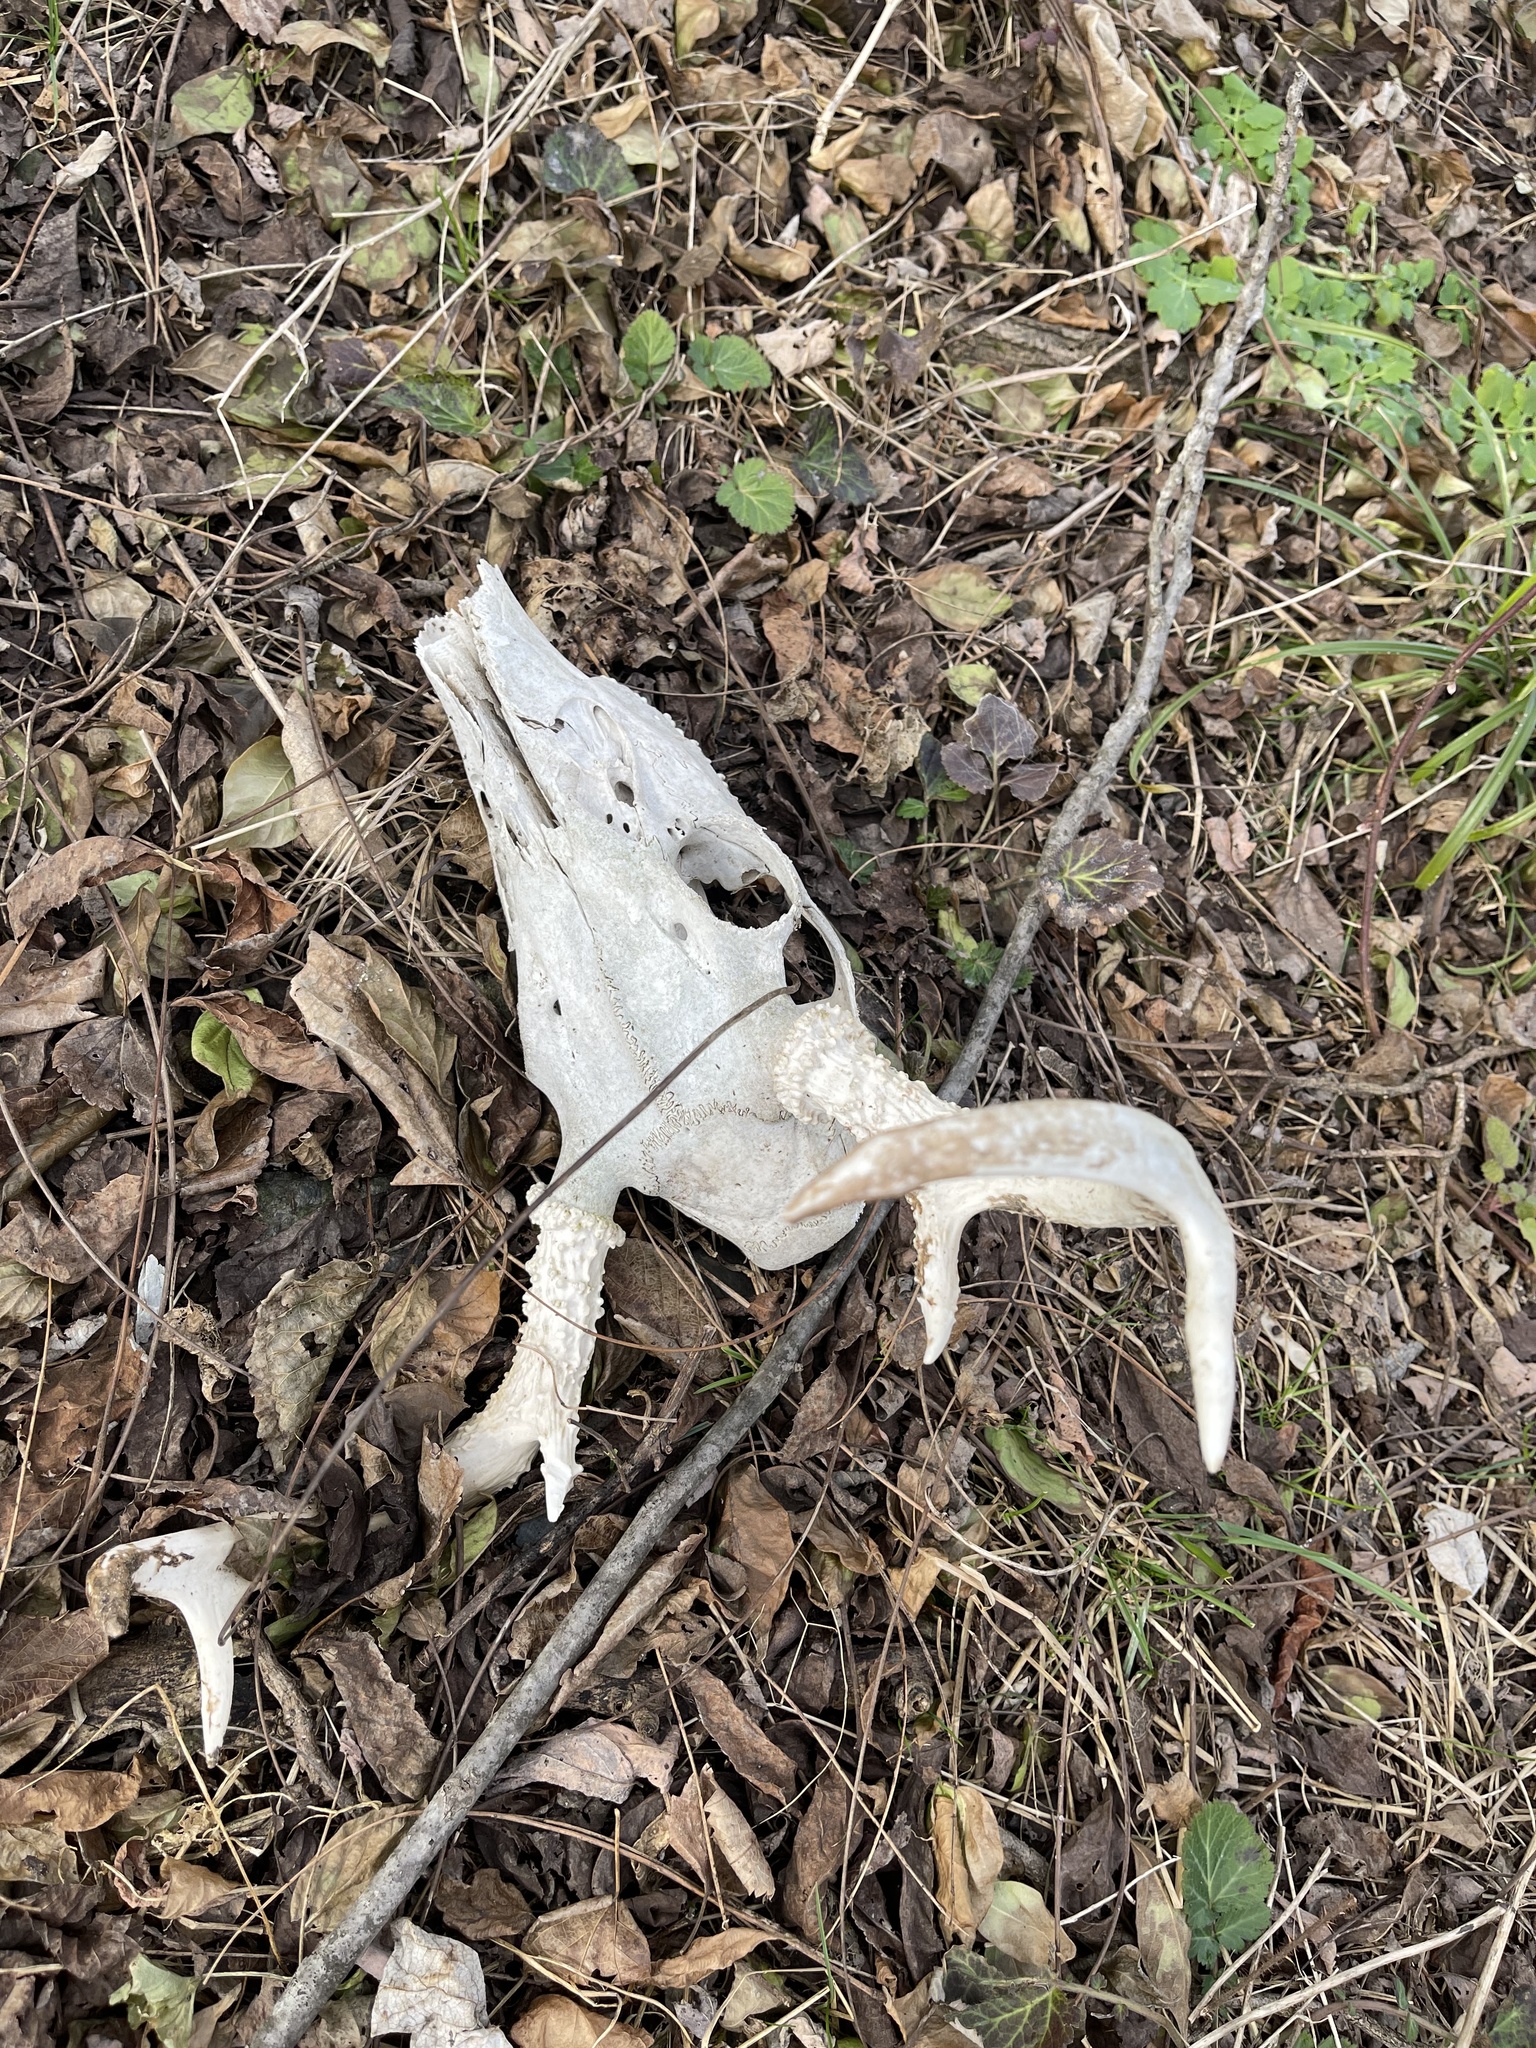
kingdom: Animalia
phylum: Chordata
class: Mammalia
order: Artiodactyla
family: Cervidae
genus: Odocoileus
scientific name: Odocoileus virginianus
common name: White-tailed deer
